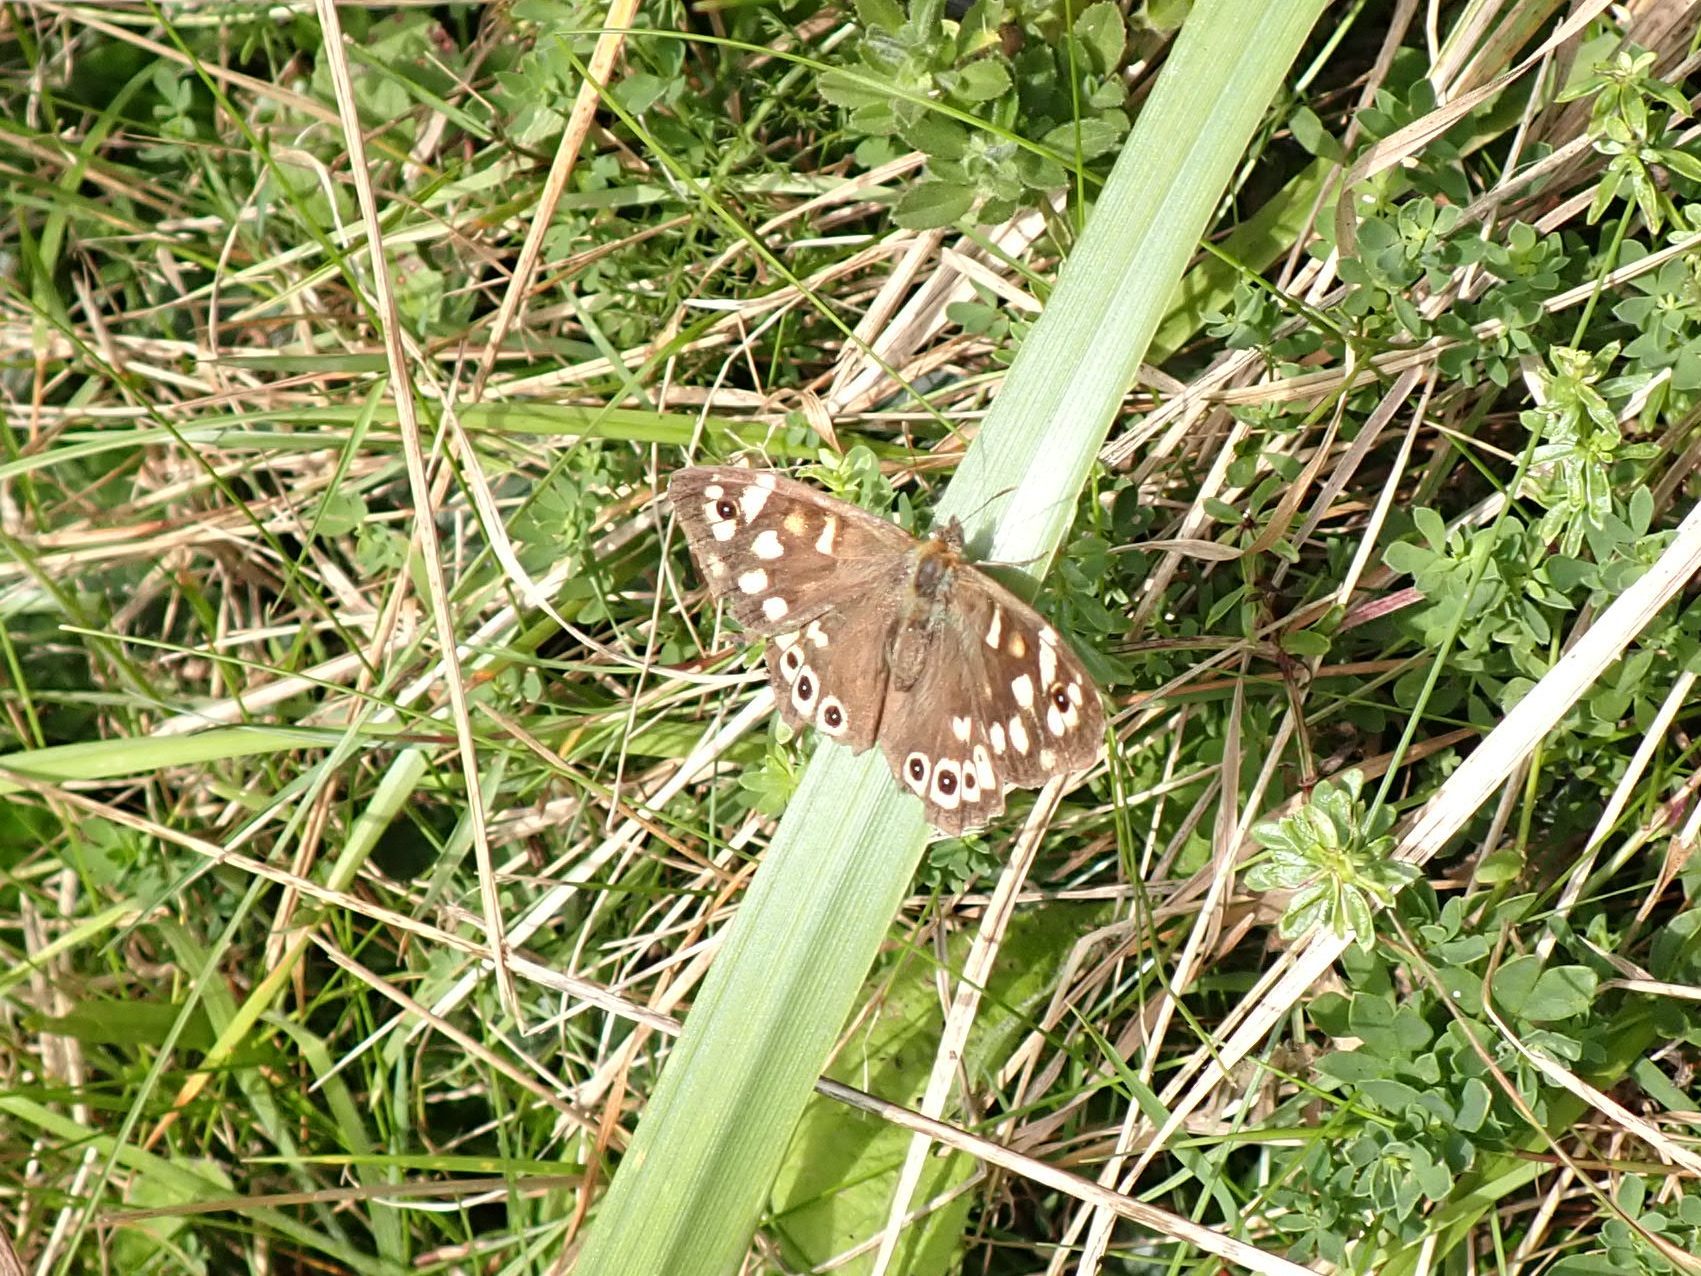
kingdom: Animalia
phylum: Arthropoda
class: Insecta
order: Lepidoptera
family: Nymphalidae
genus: Pararge
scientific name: Pararge aegeria
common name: Speckled wood
